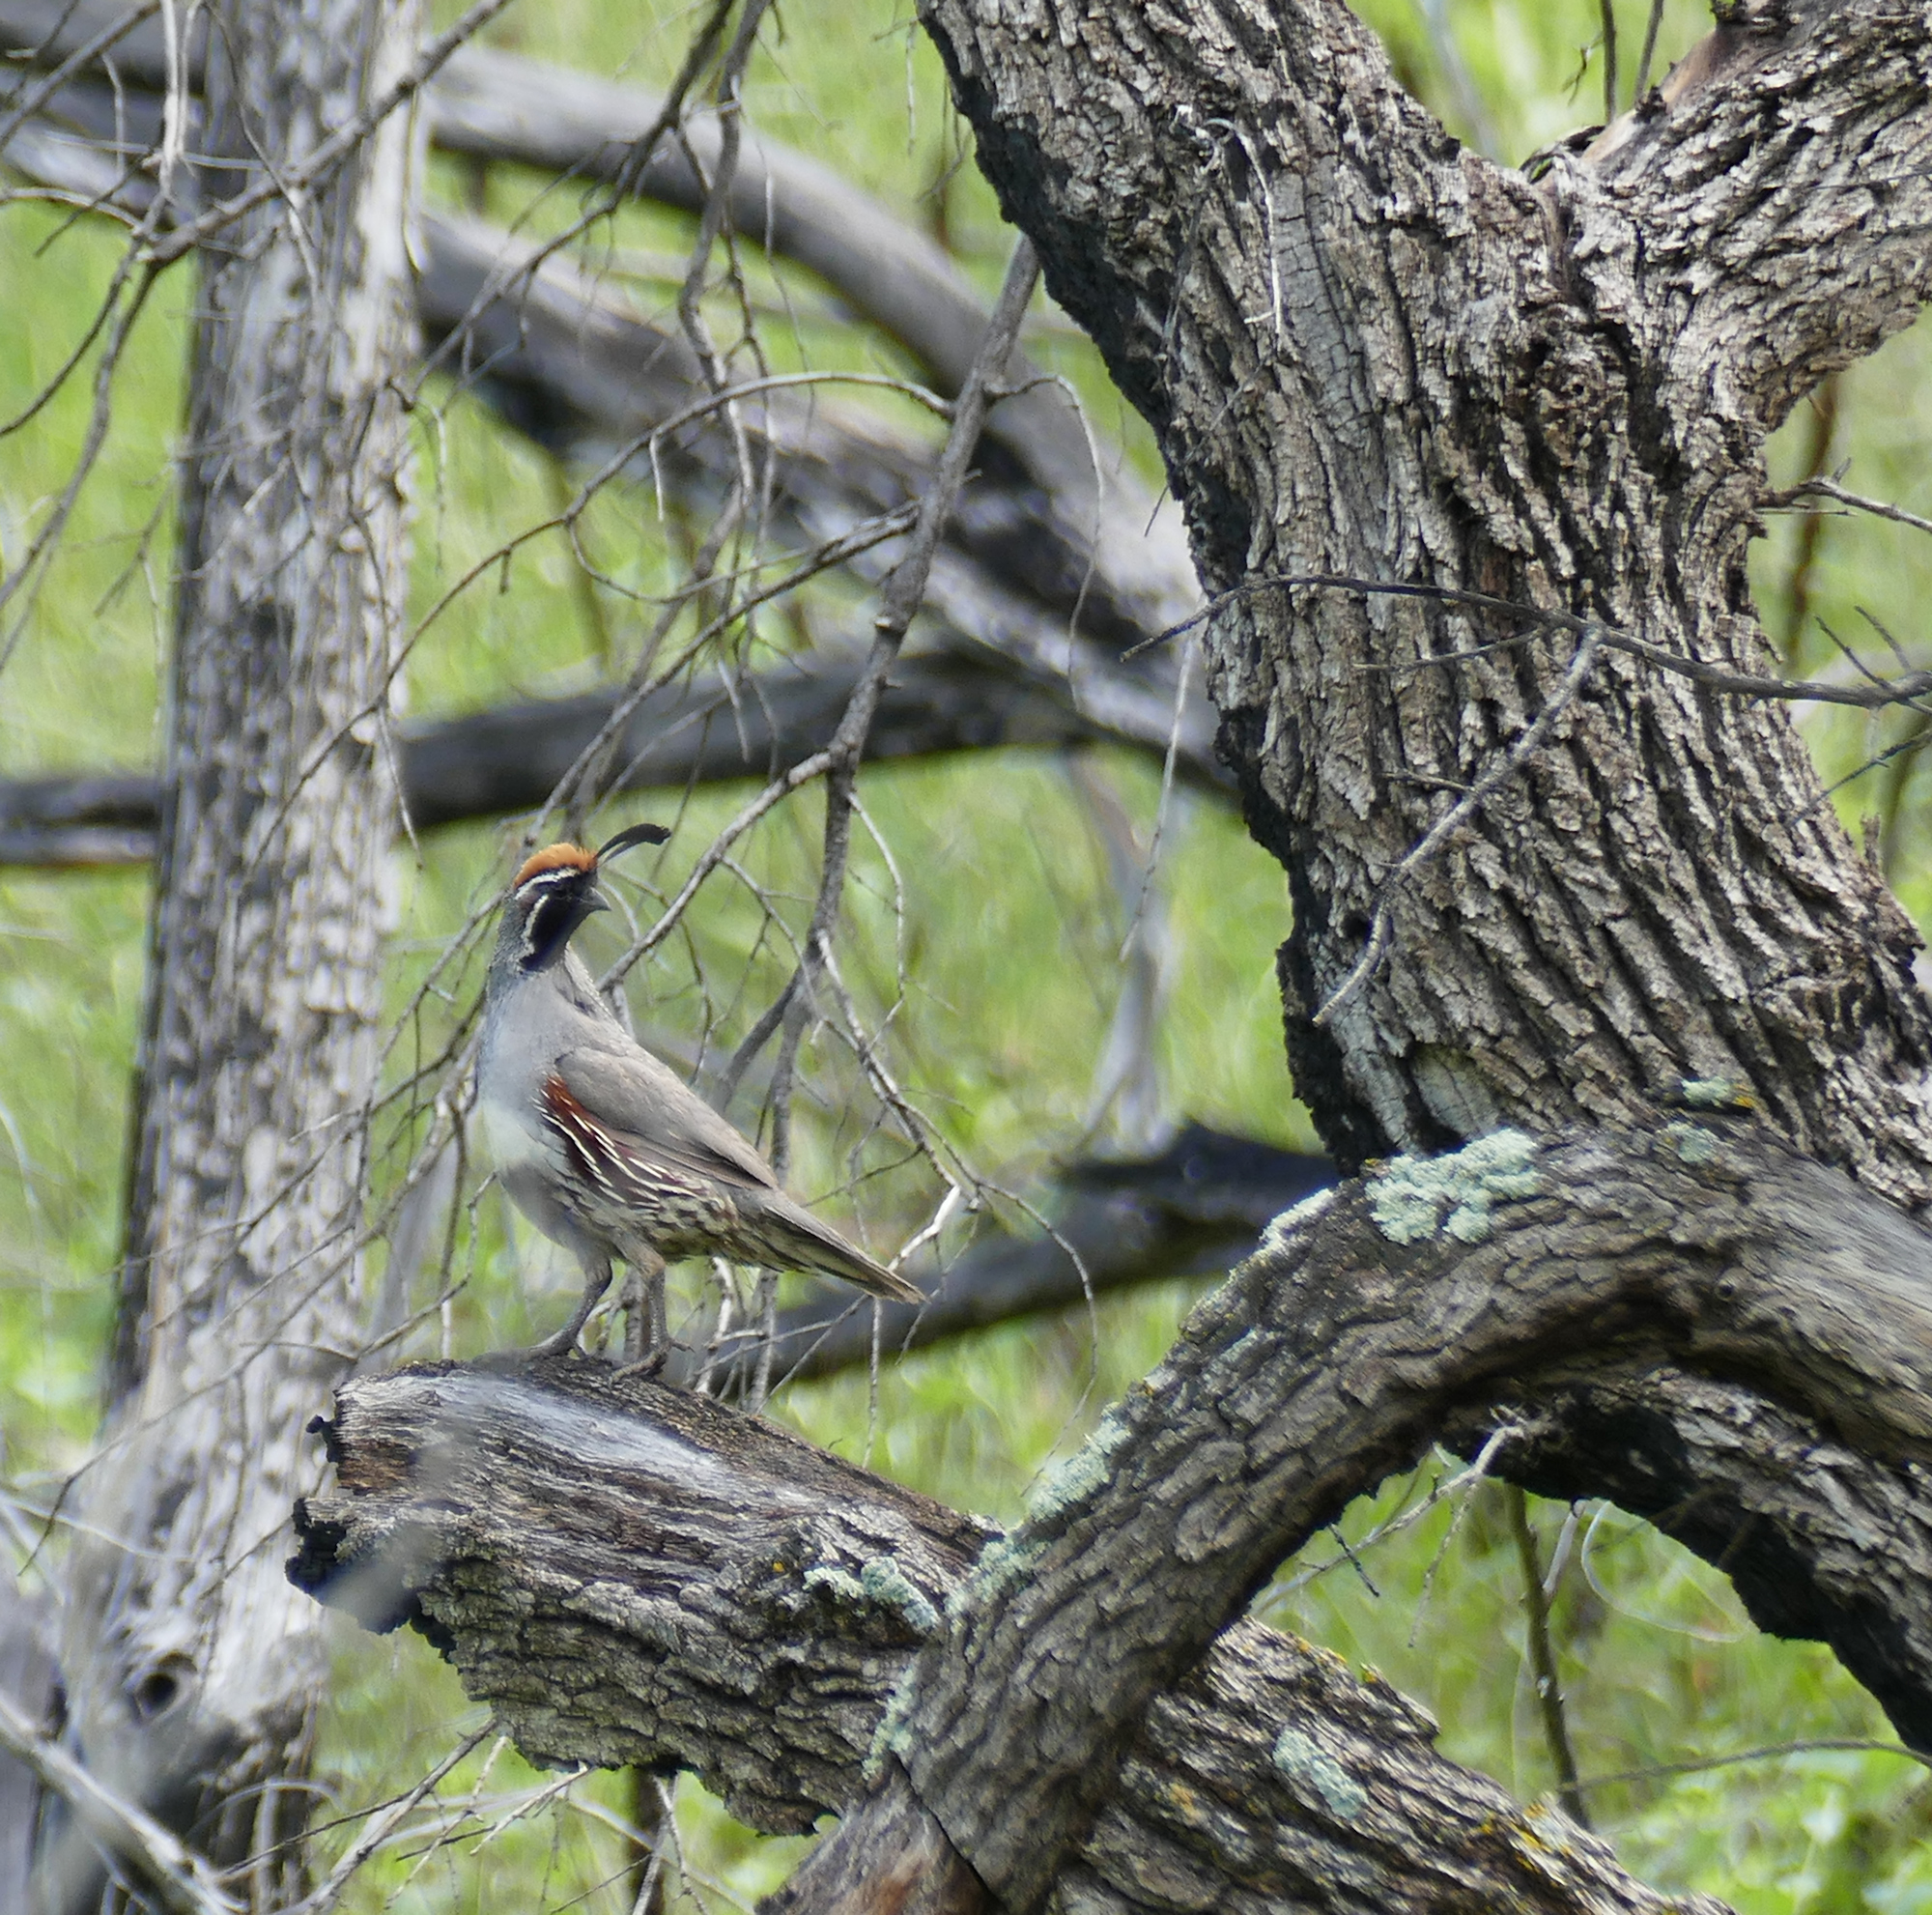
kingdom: Animalia
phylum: Chordata
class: Aves
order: Galliformes
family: Odontophoridae
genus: Callipepla
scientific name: Callipepla gambelii
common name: Gambel's quail
